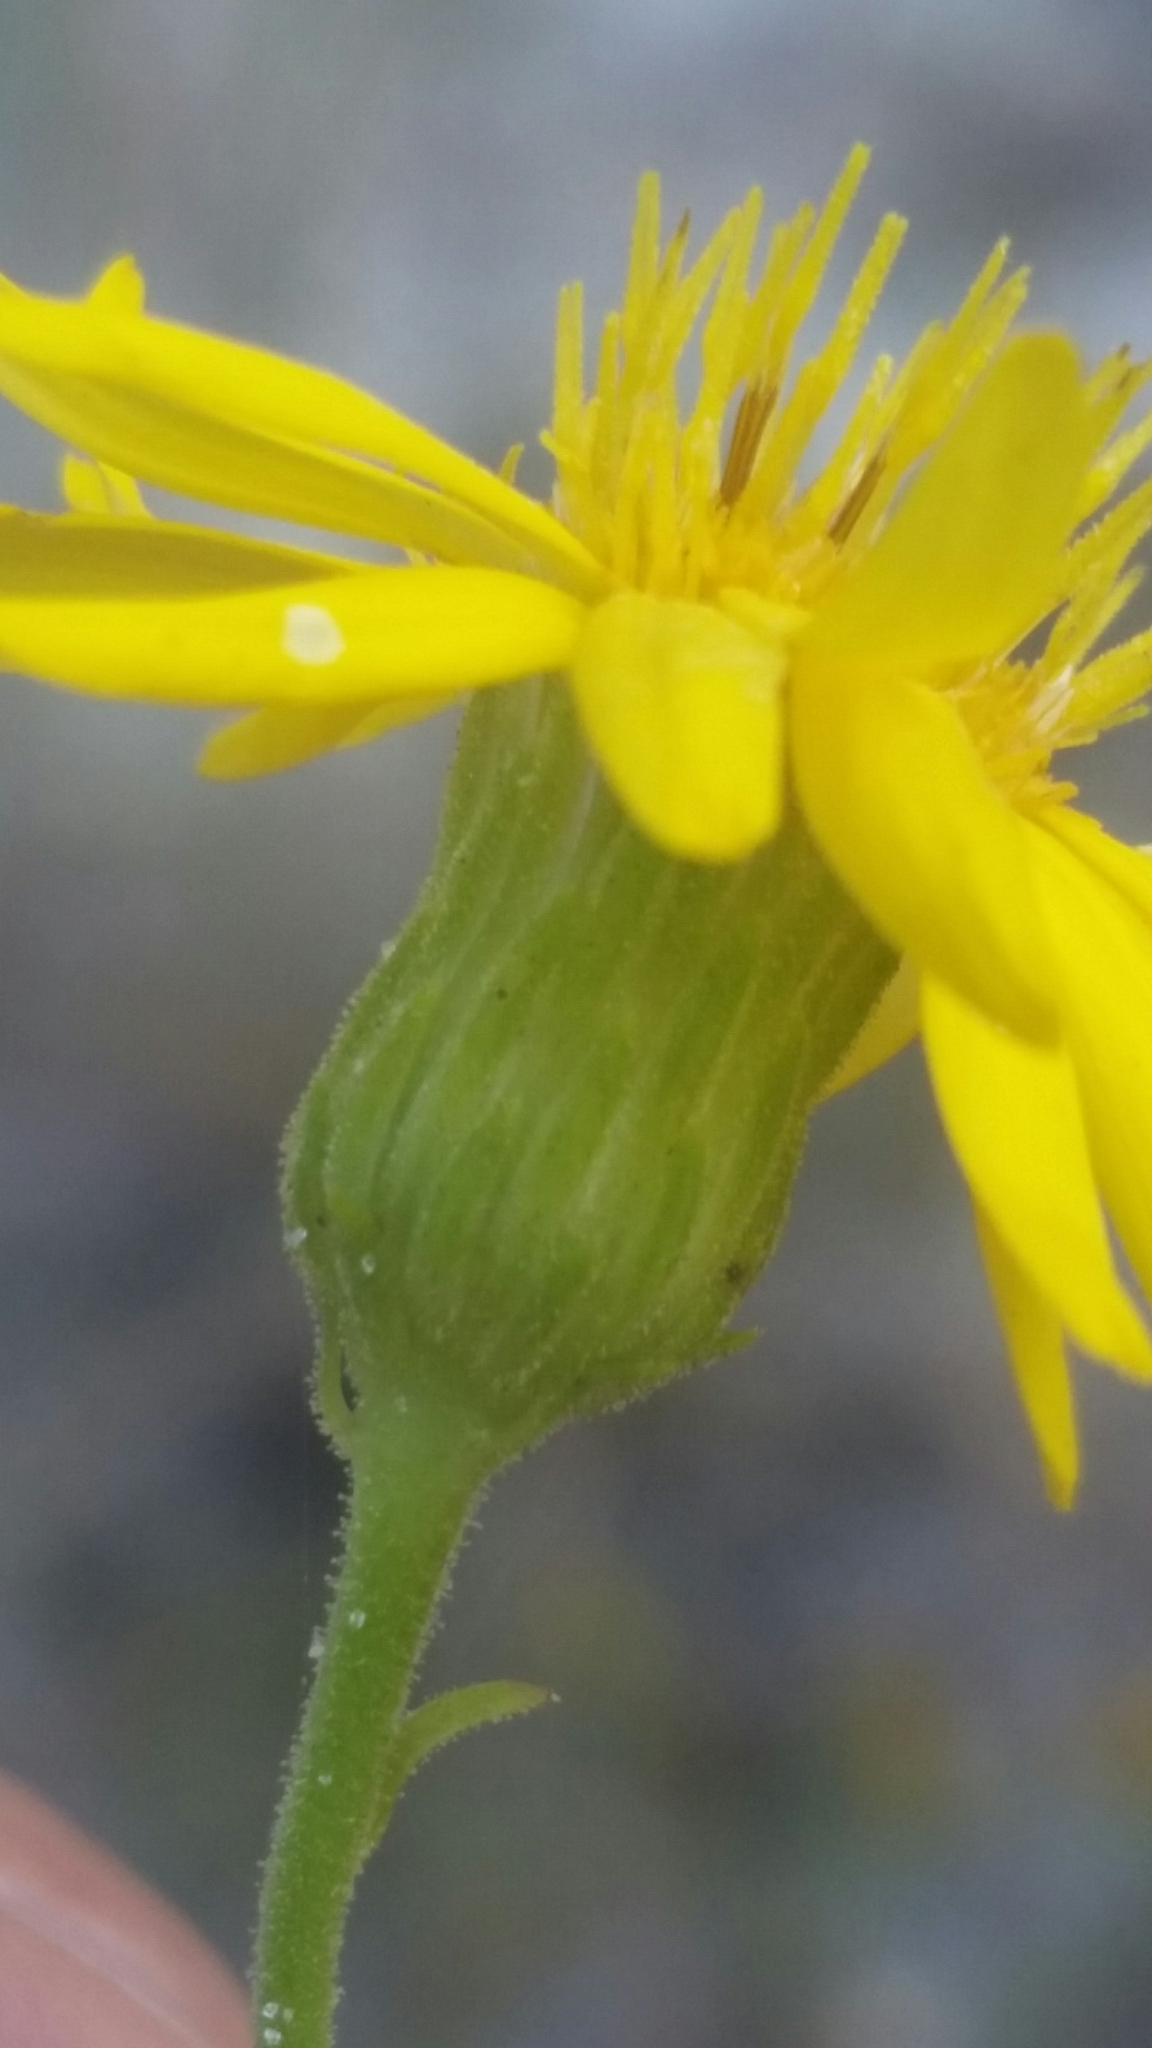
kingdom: Plantae
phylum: Tracheophyta
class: Magnoliopsida
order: Asterales
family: Asteraceae
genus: Chrysopsis
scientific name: Chrysopsis scabrella
